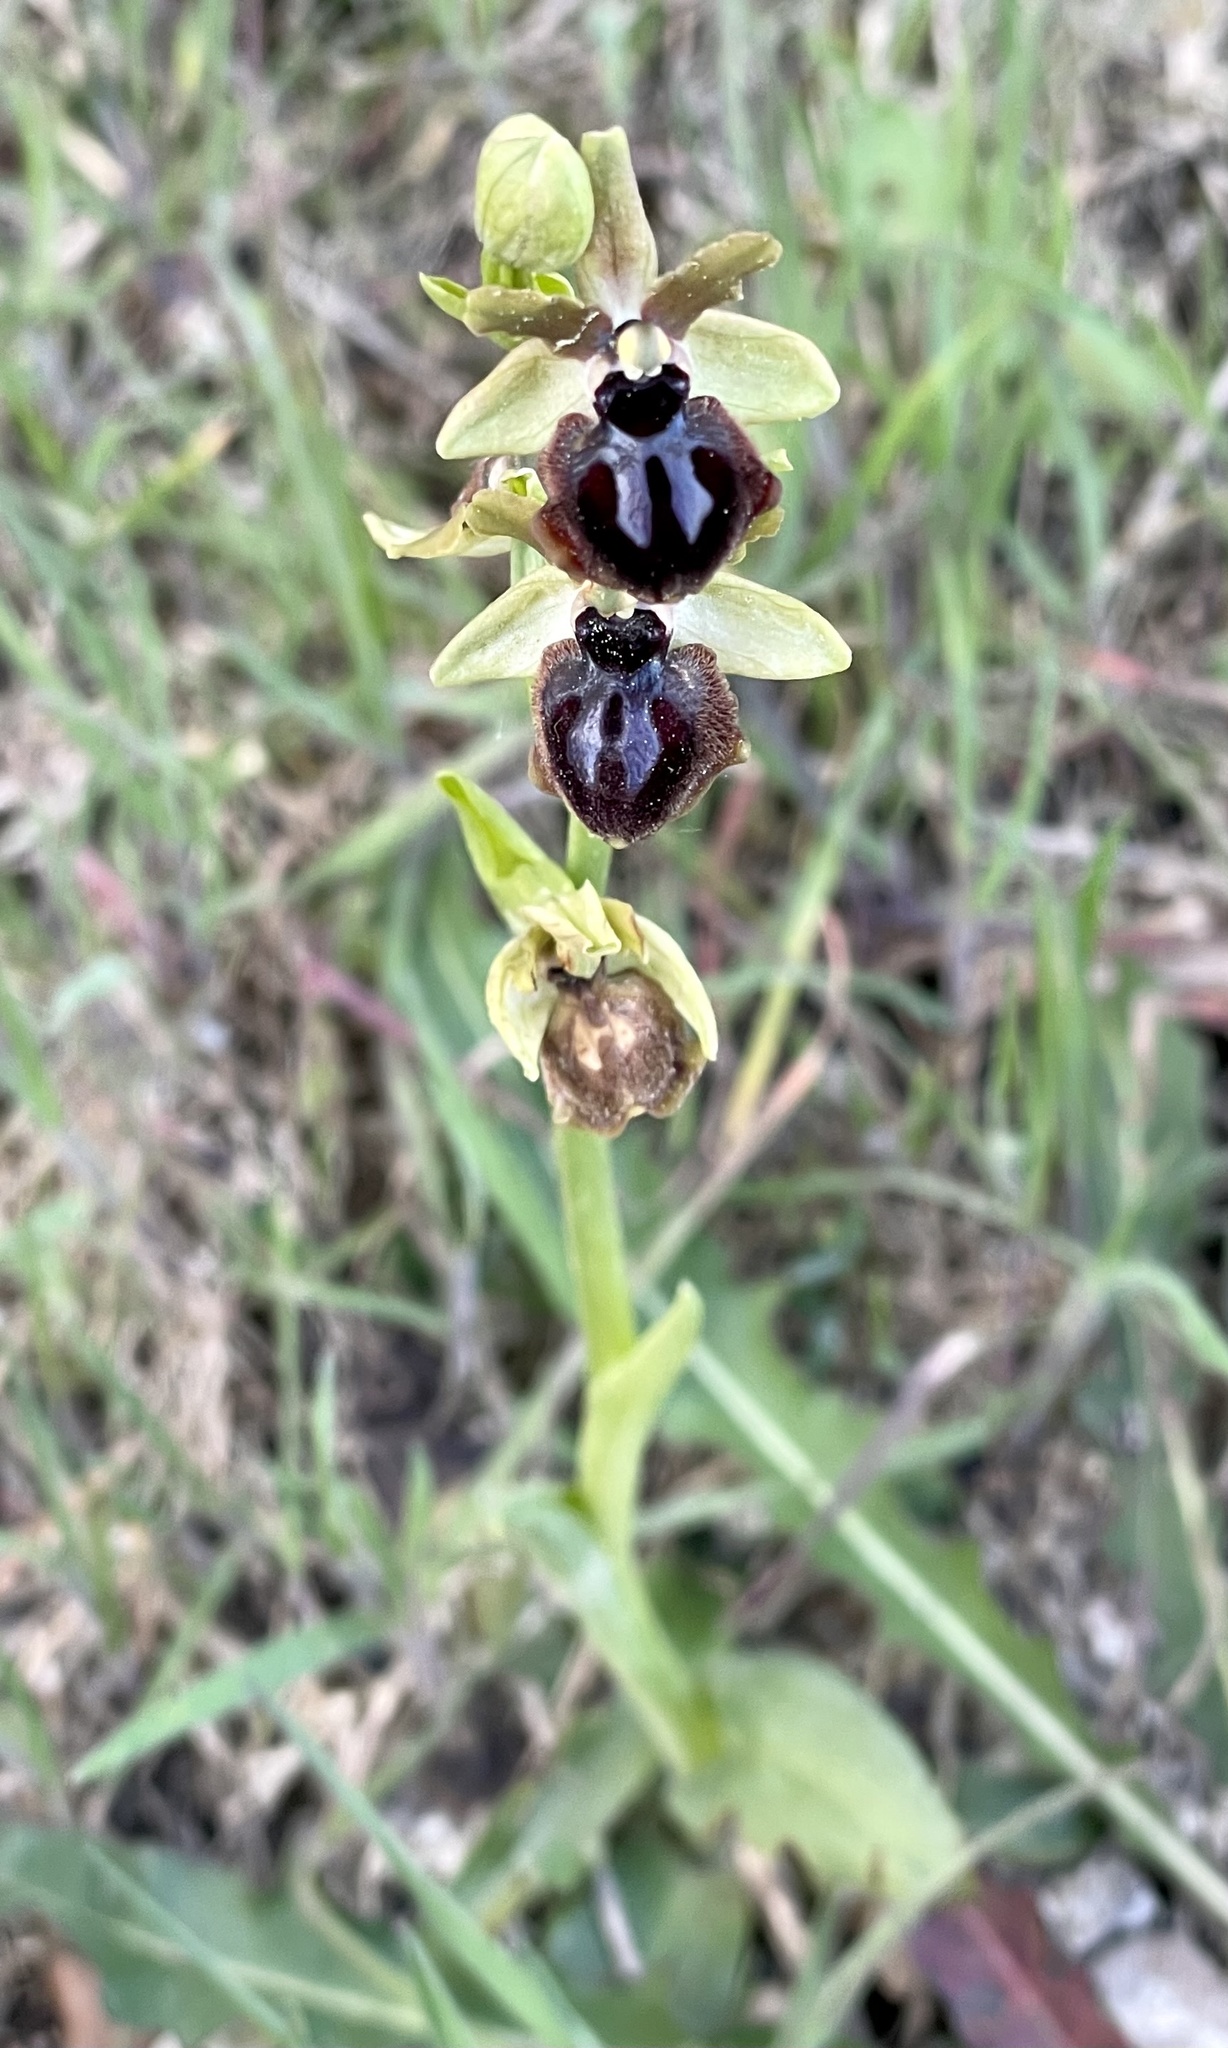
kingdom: Plantae
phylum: Tracheophyta
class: Liliopsida
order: Asparagales
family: Orchidaceae
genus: Ophrys
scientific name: Ophrys sphegodes
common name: Early spider-orchid
